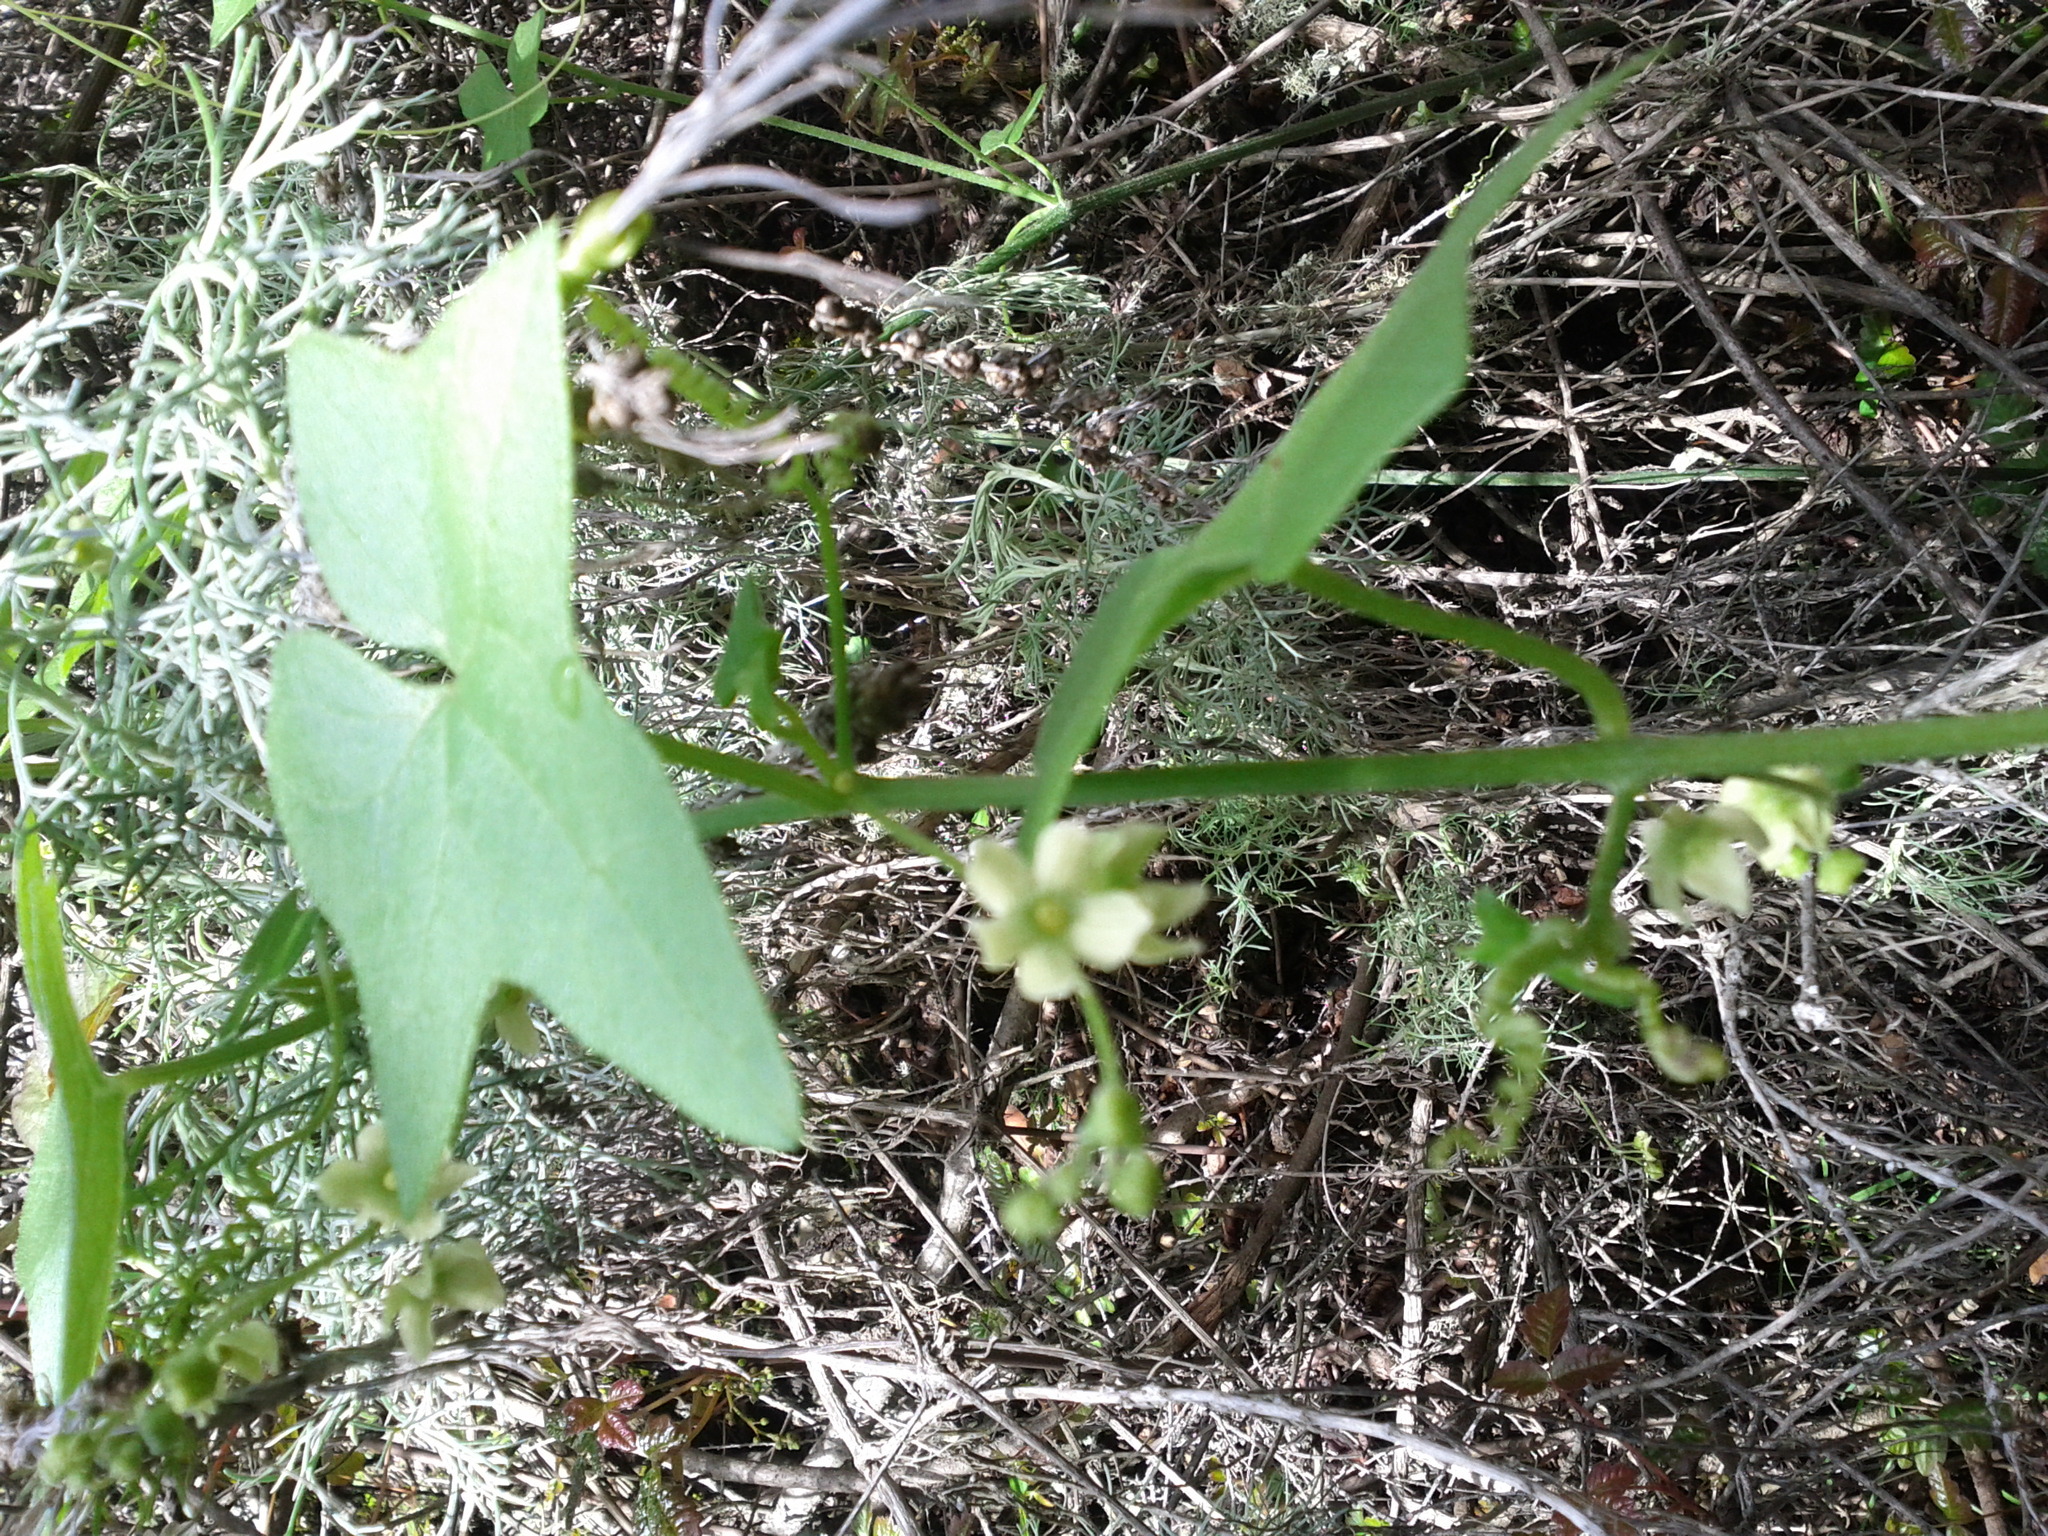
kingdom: Plantae
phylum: Tracheophyta
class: Magnoliopsida
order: Cucurbitales
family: Cucurbitaceae
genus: Marah
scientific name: Marah fabacea
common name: California manroot
